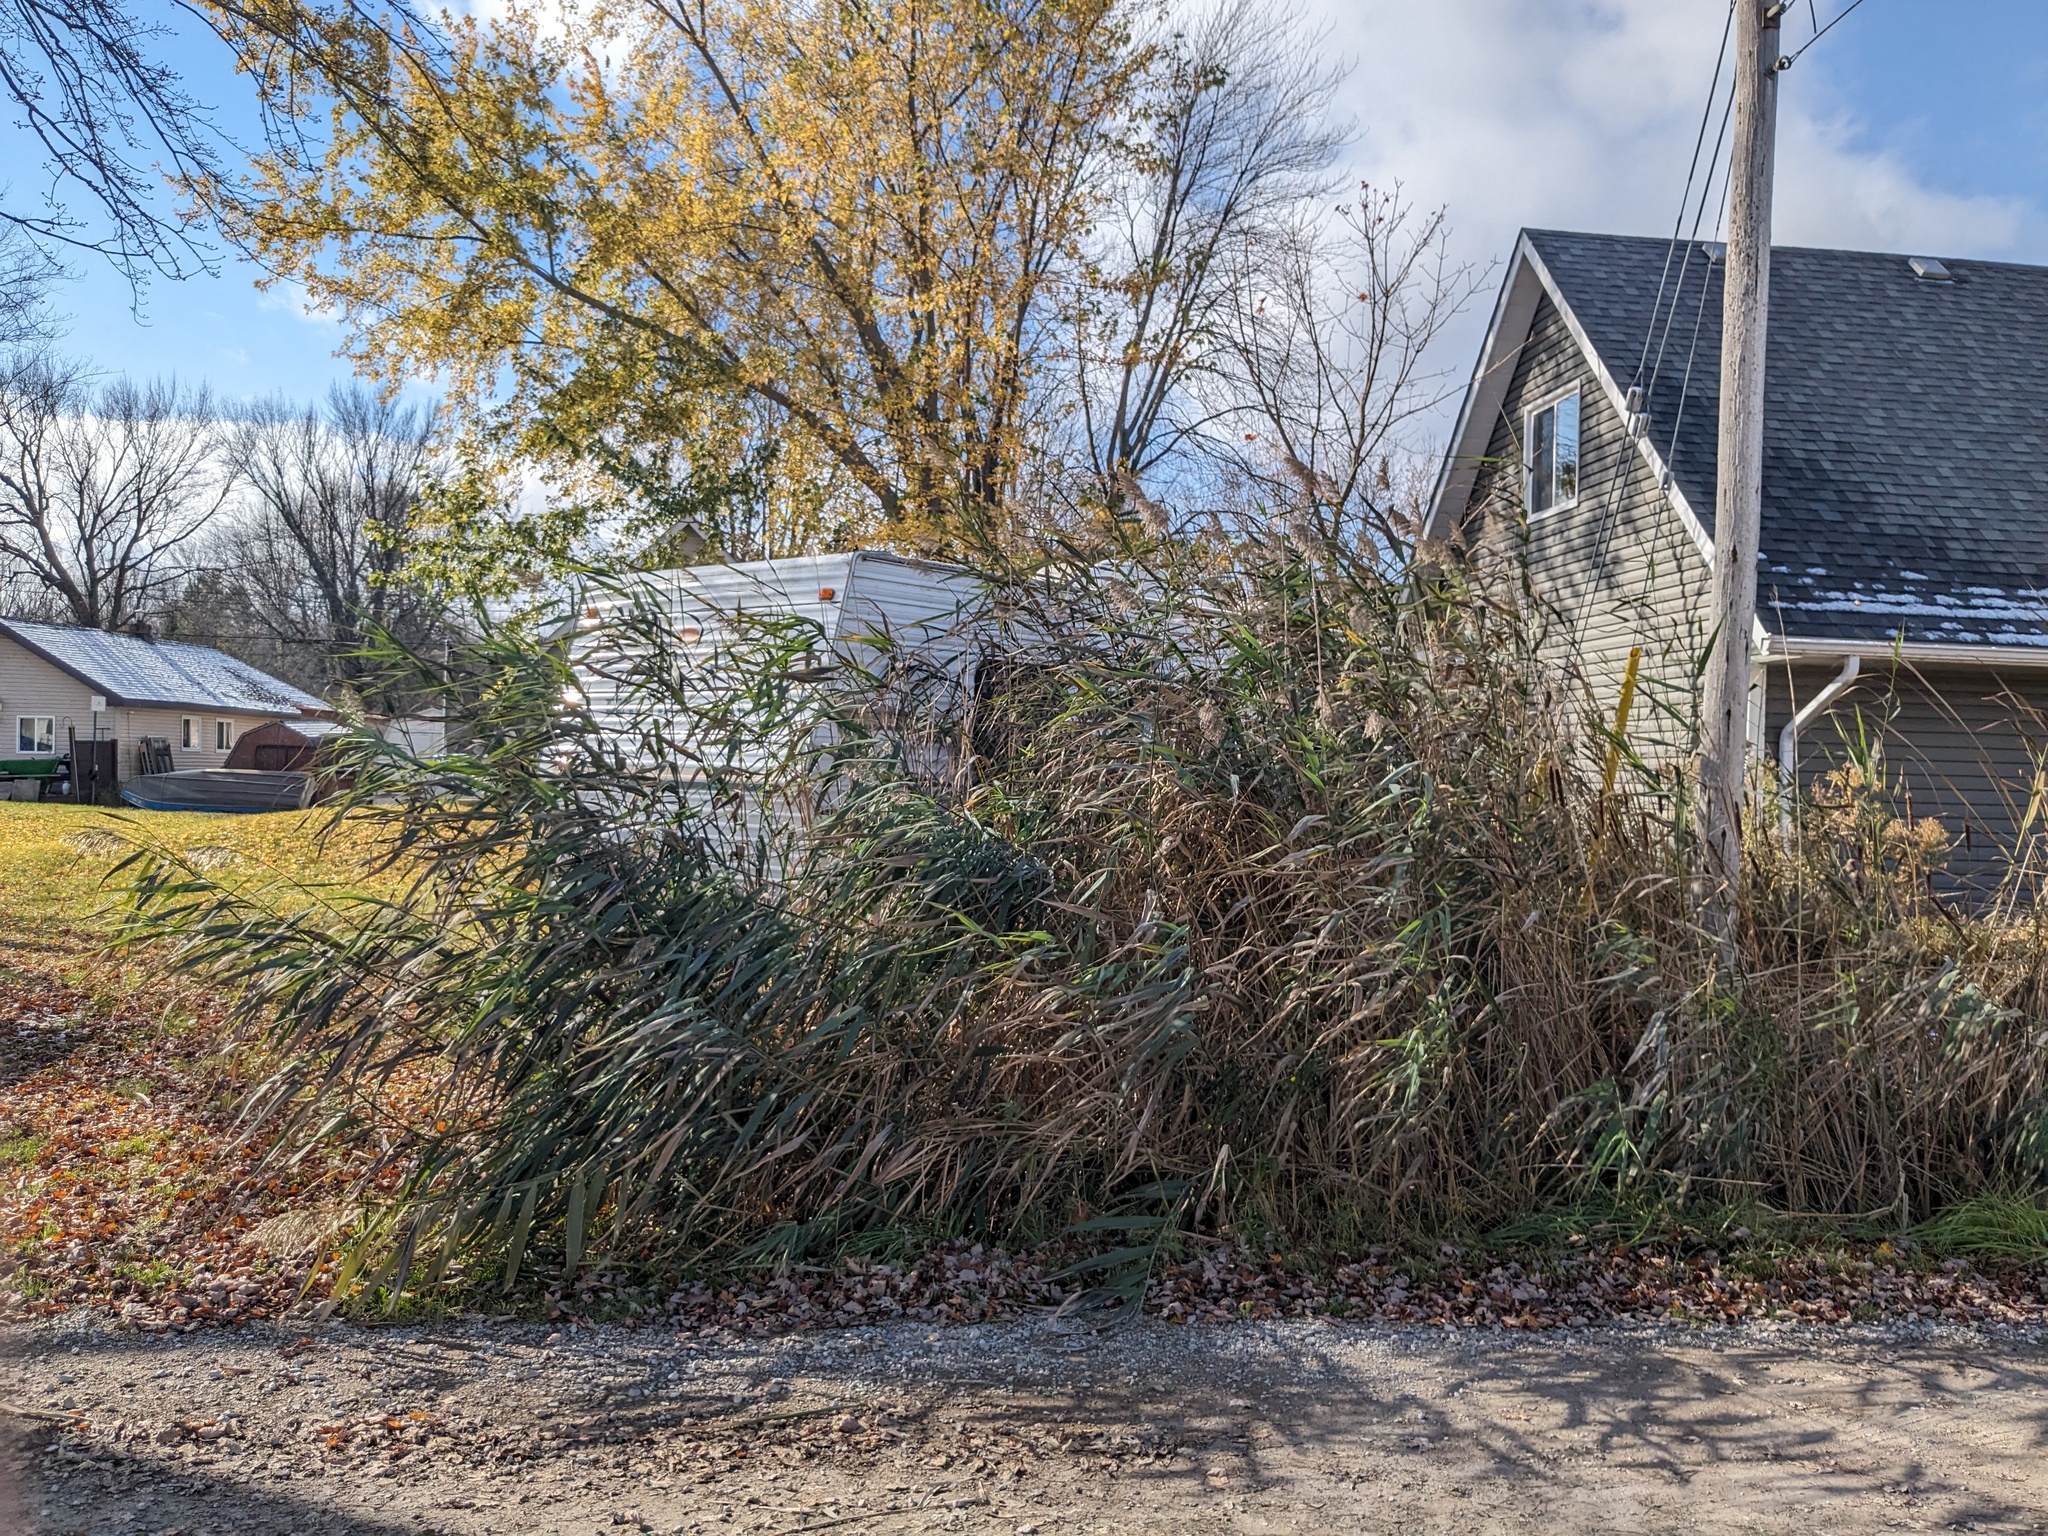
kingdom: Plantae
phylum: Tracheophyta
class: Liliopsida
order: Poales
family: Poaceae
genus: Phragmites
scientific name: Phragmites australis
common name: Common reed
